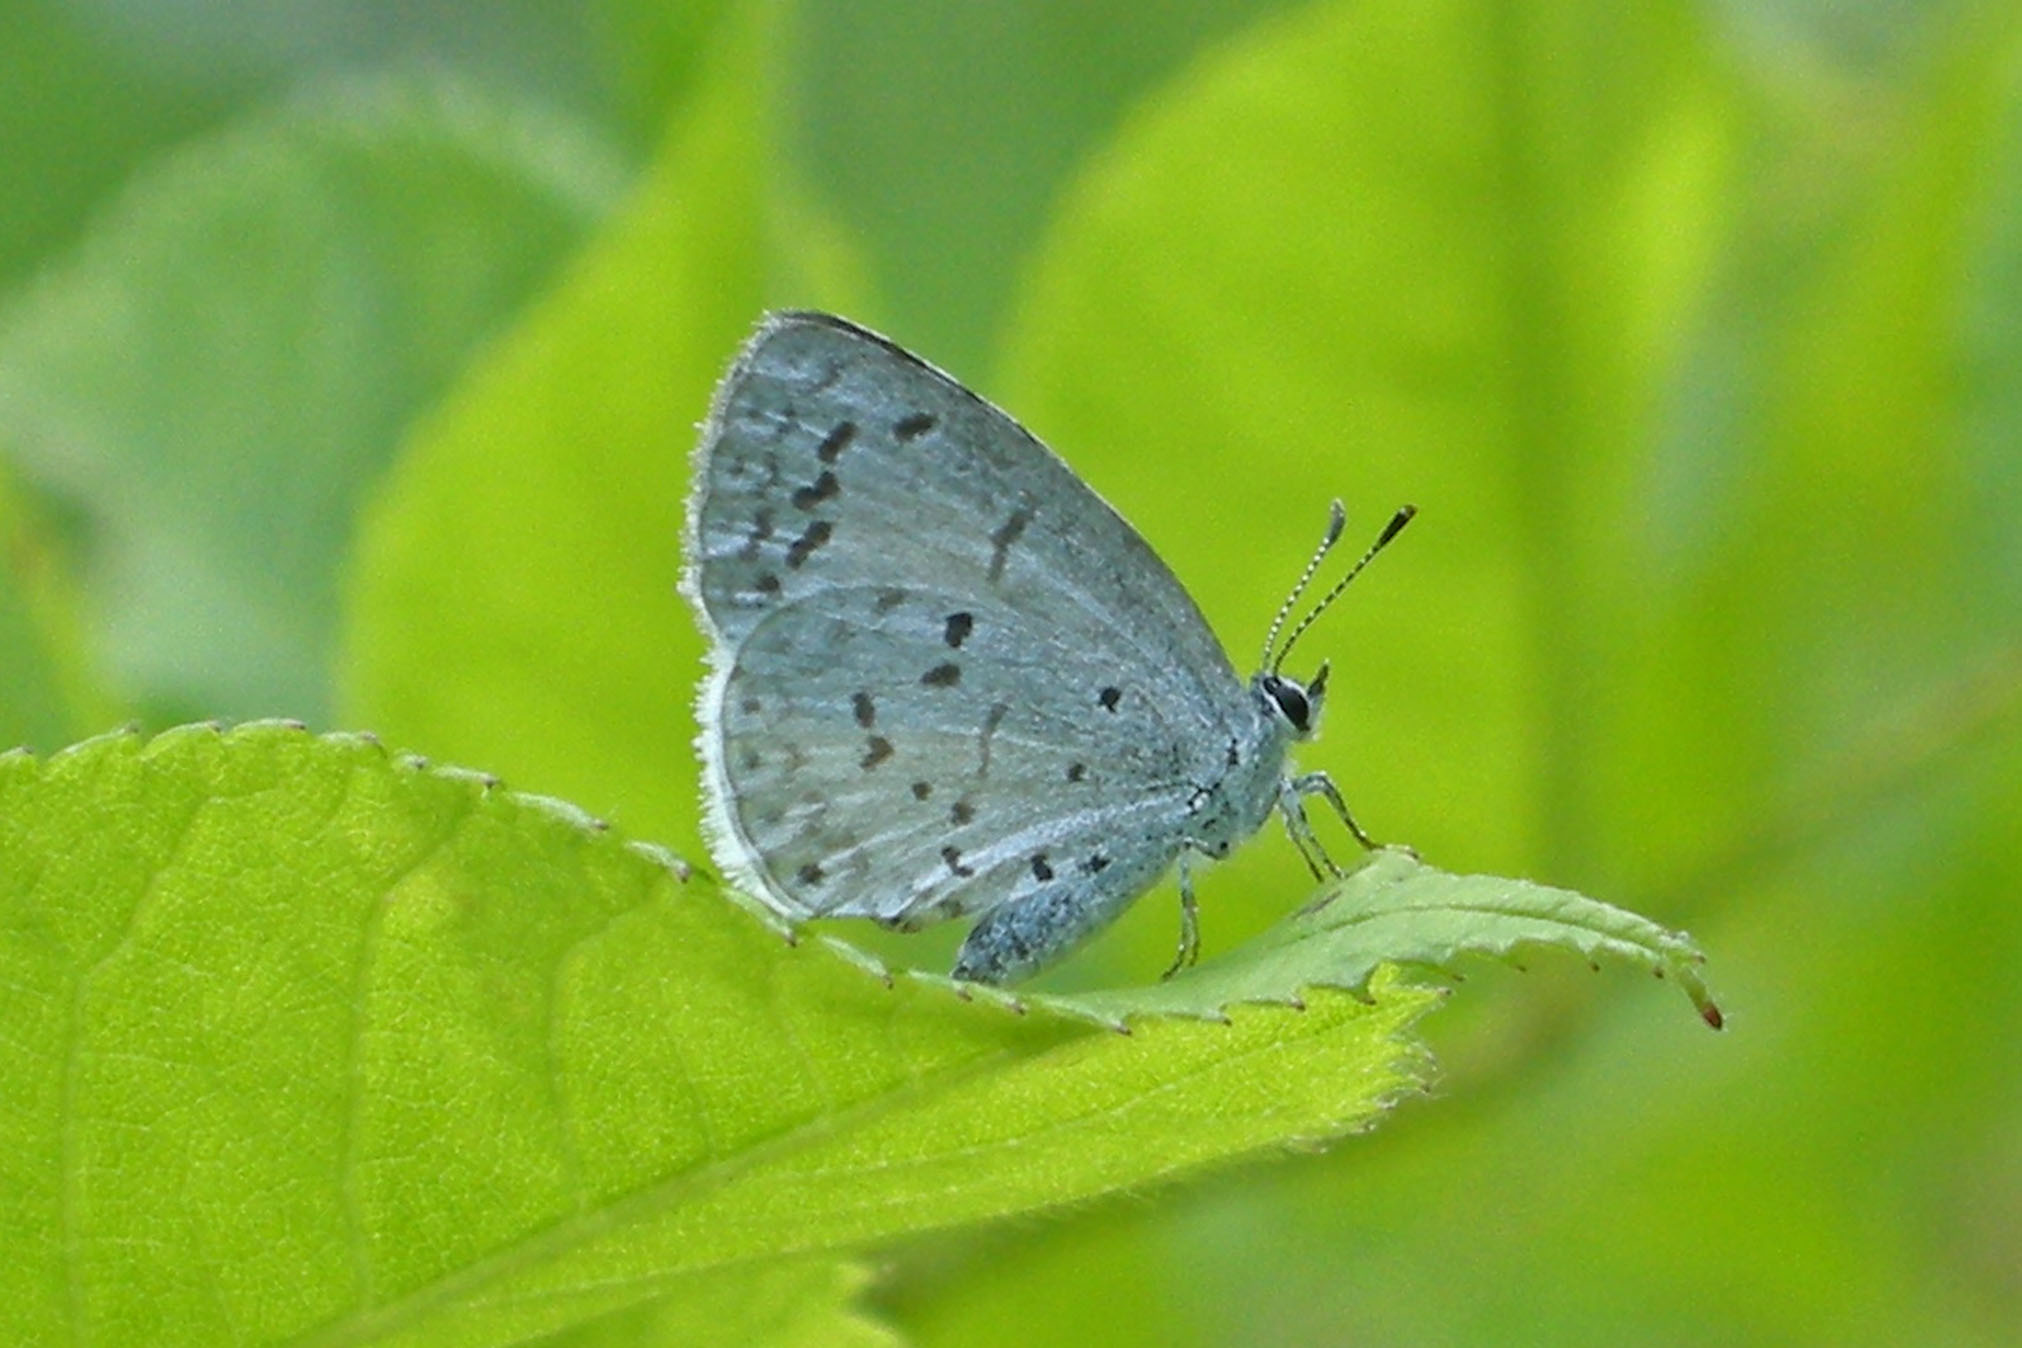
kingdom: Animalia
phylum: Arthropoda
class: Insecta
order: Lepidoptera
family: Lycaenidae
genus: Cyaniris
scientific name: Cyaniris neglecta
